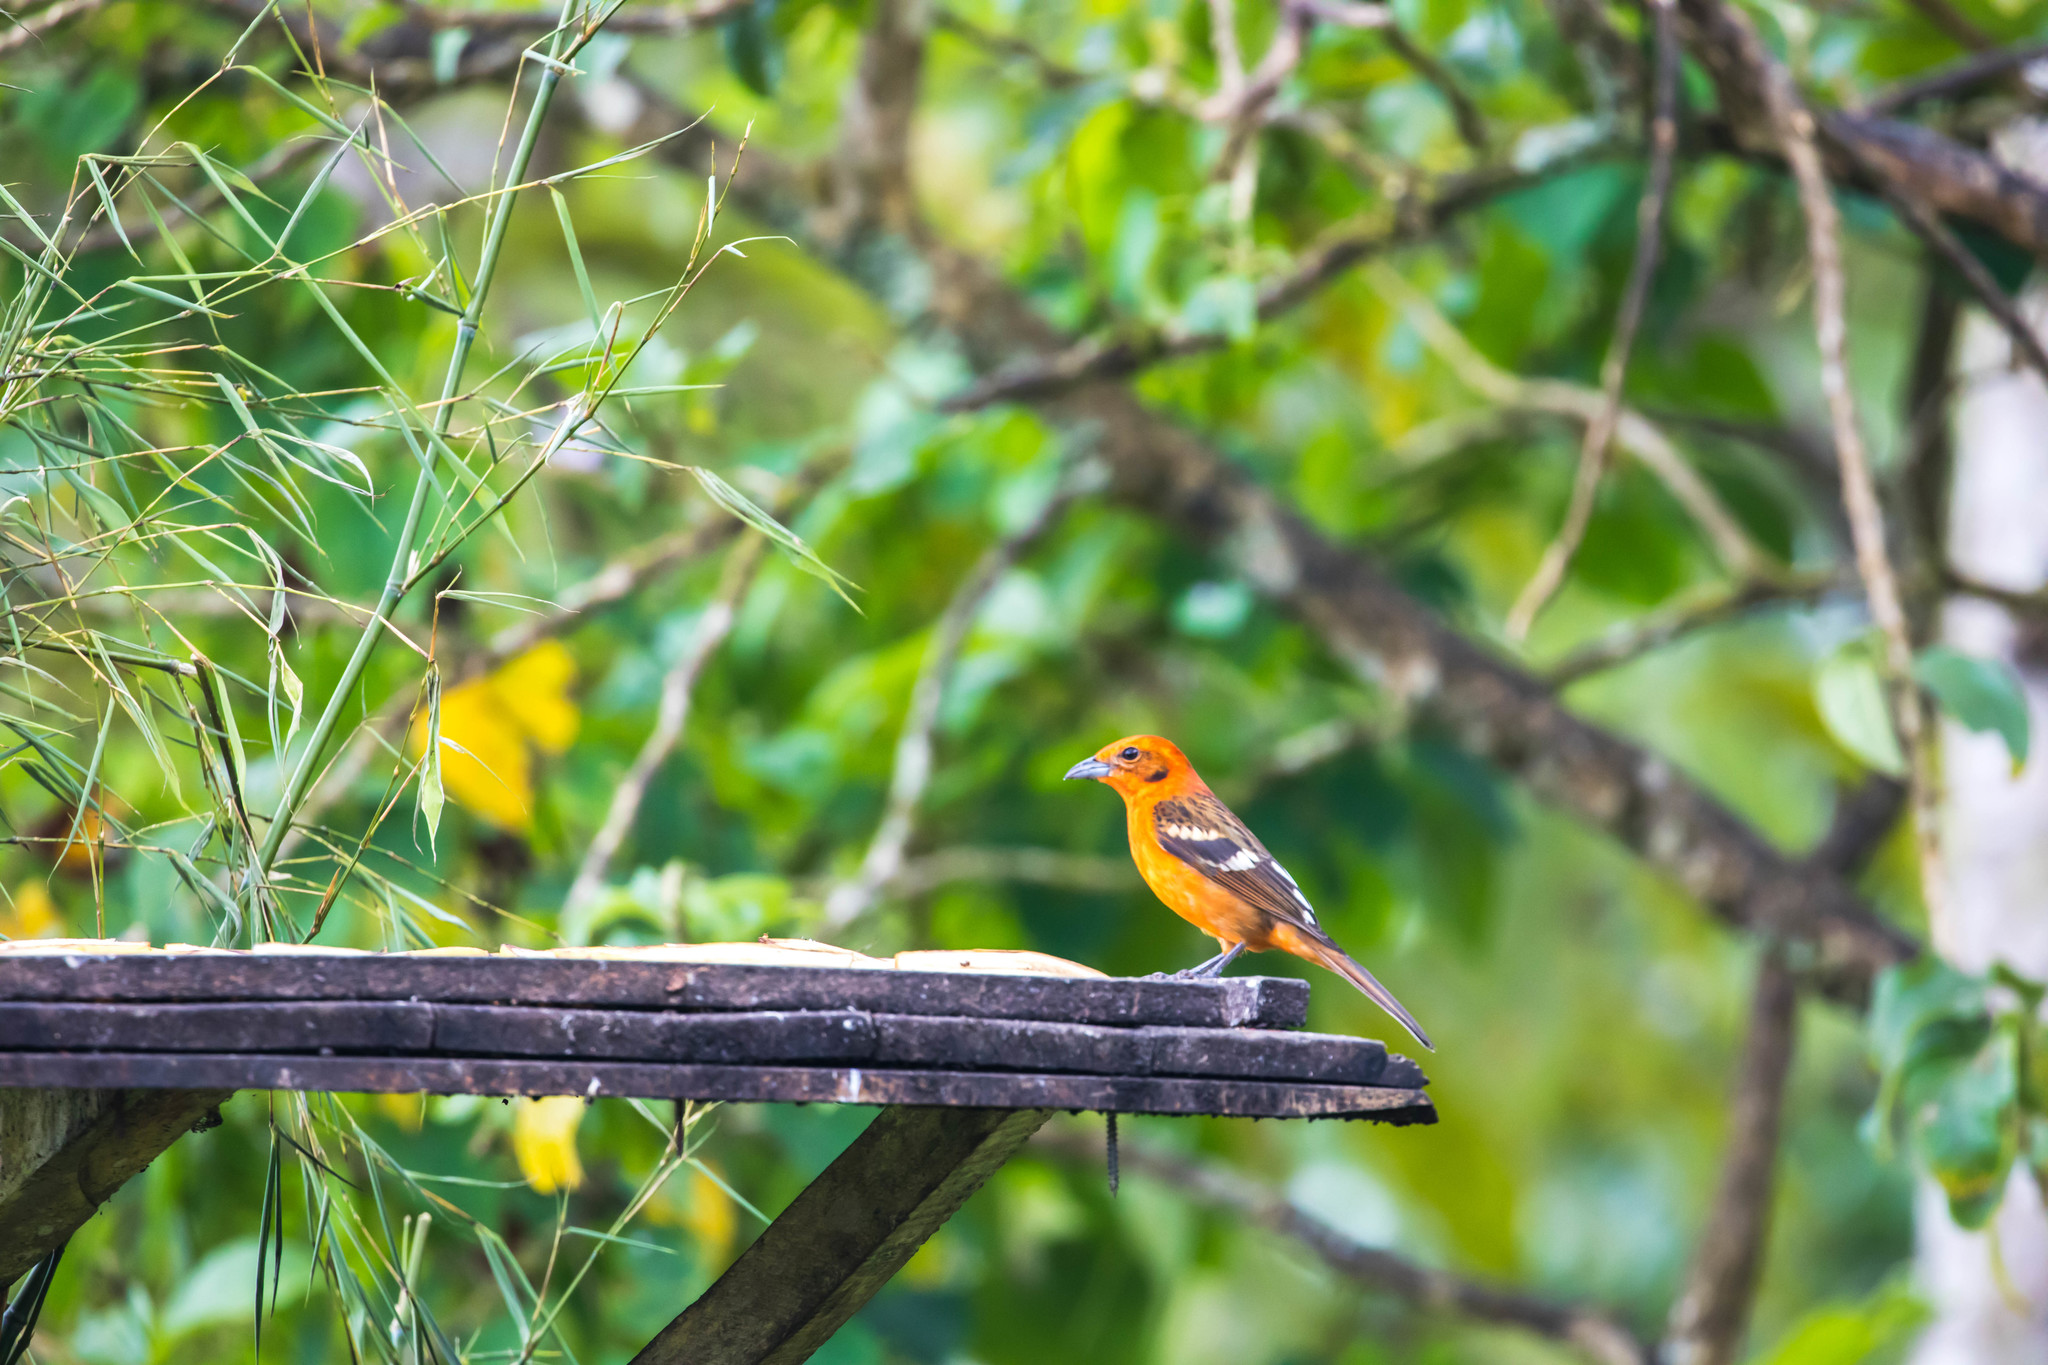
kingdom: Animalia
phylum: Chordata
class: Aves
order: Passeriformes
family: Cardinalidae
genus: Piranga
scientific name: Piranga bidentata
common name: Flame-colored tanager
